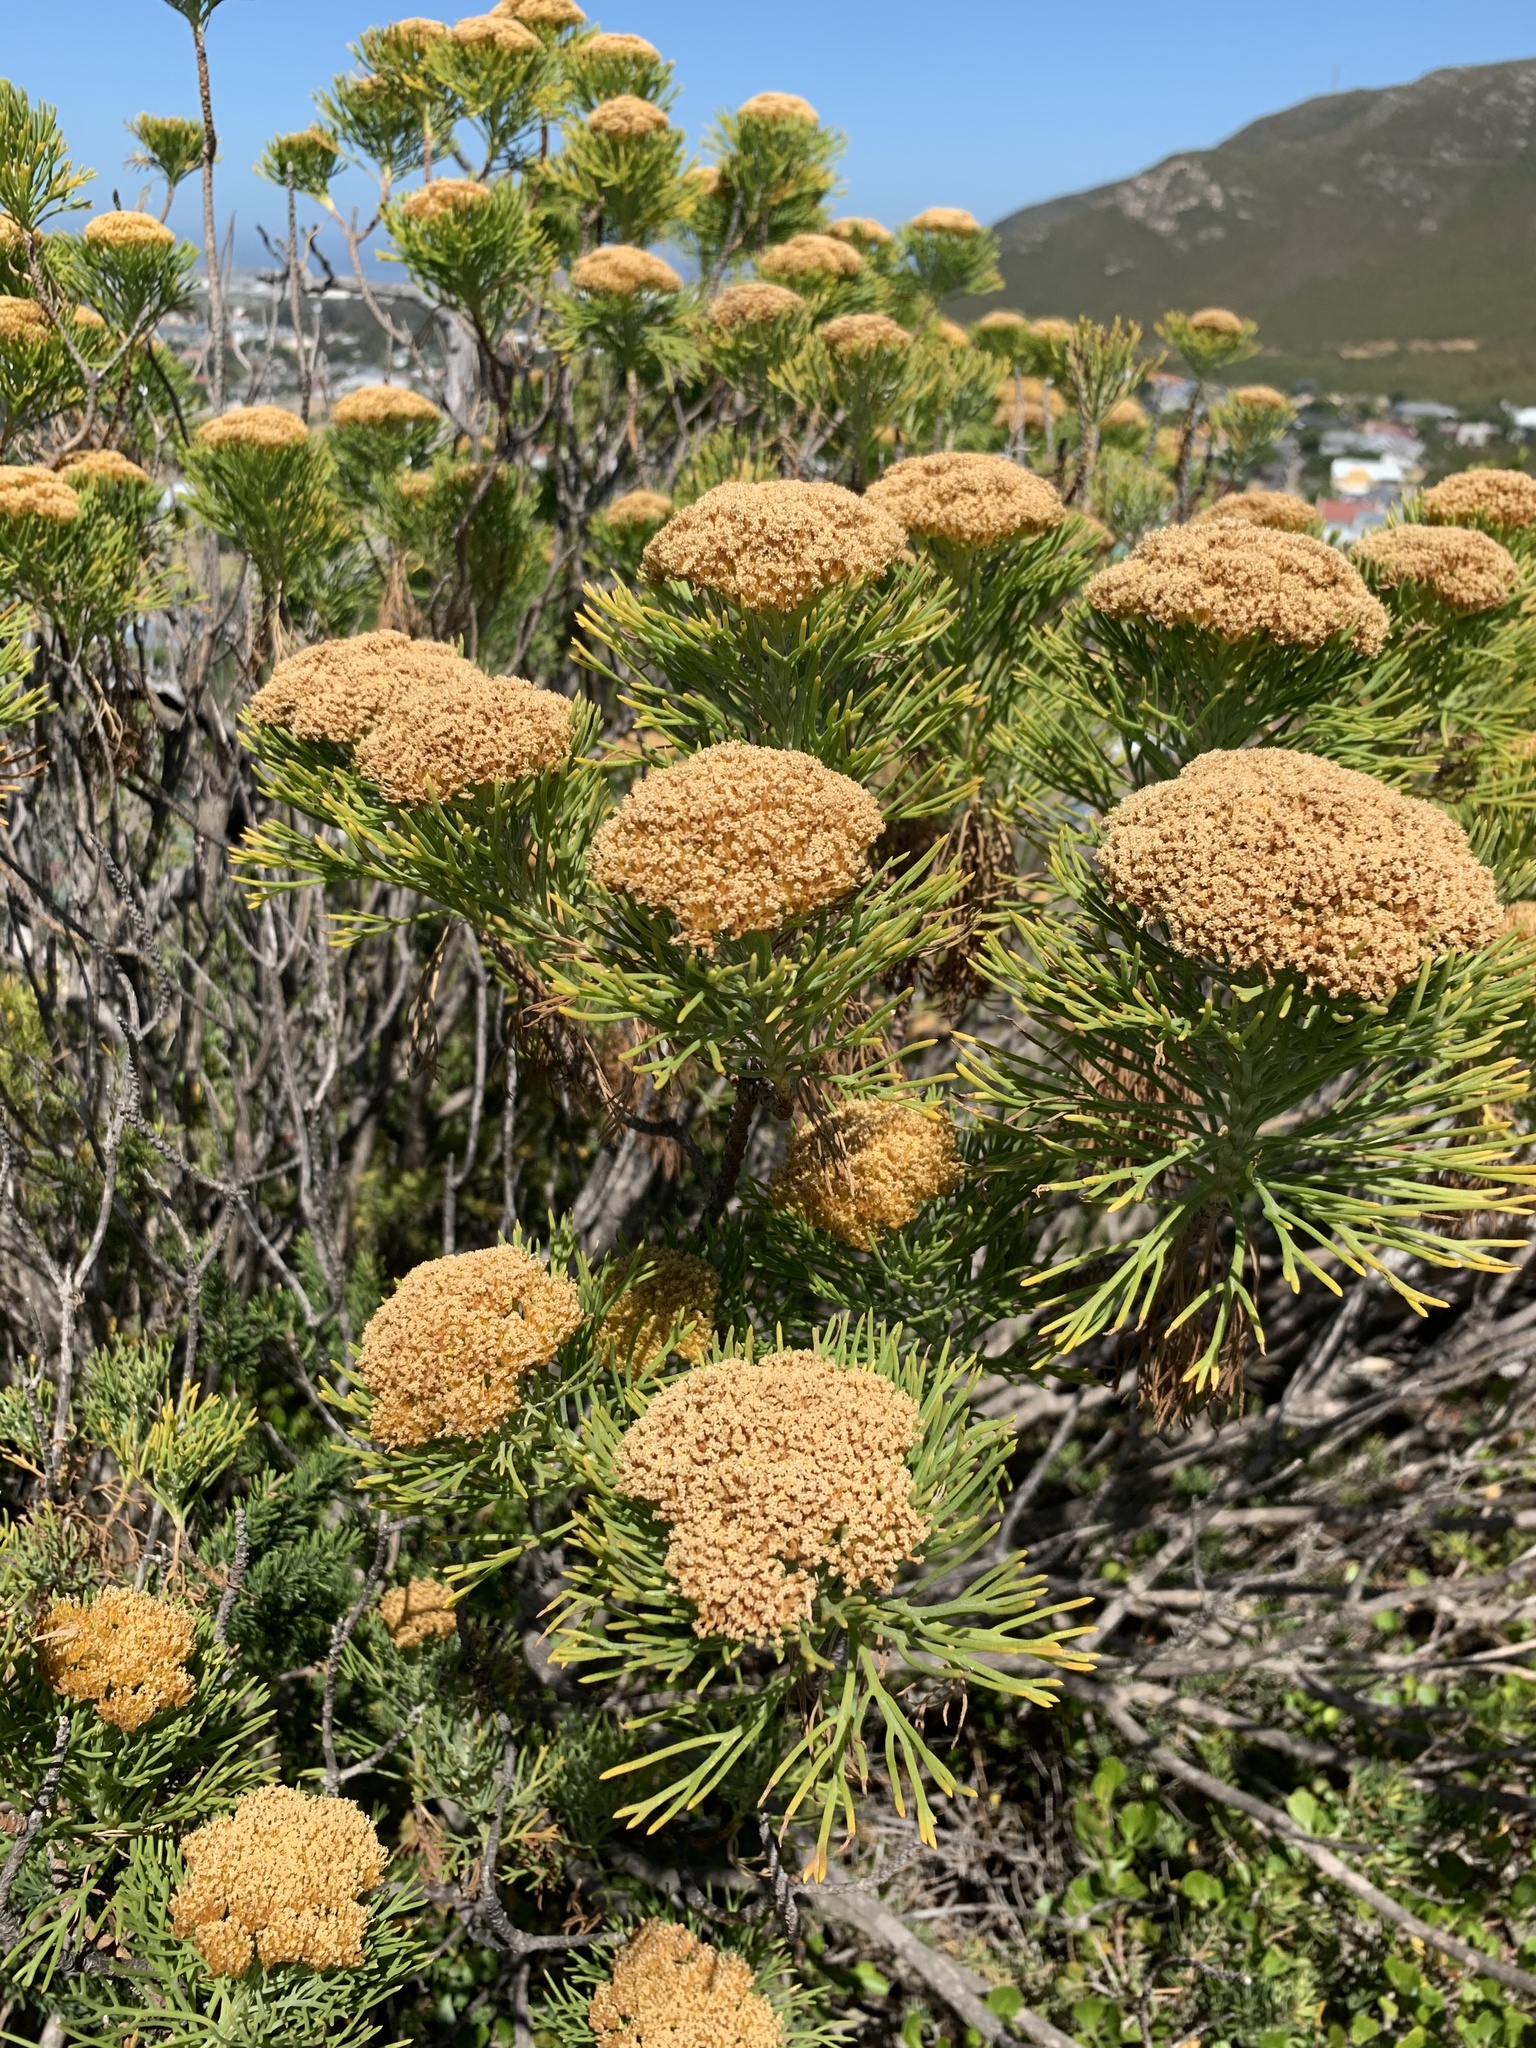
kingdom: Plantae
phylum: Tracheophyta
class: Magnoliopsida
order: Asterales
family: Asteraceae
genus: Hymenolepis
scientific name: Hymenolepis crithmifolia
